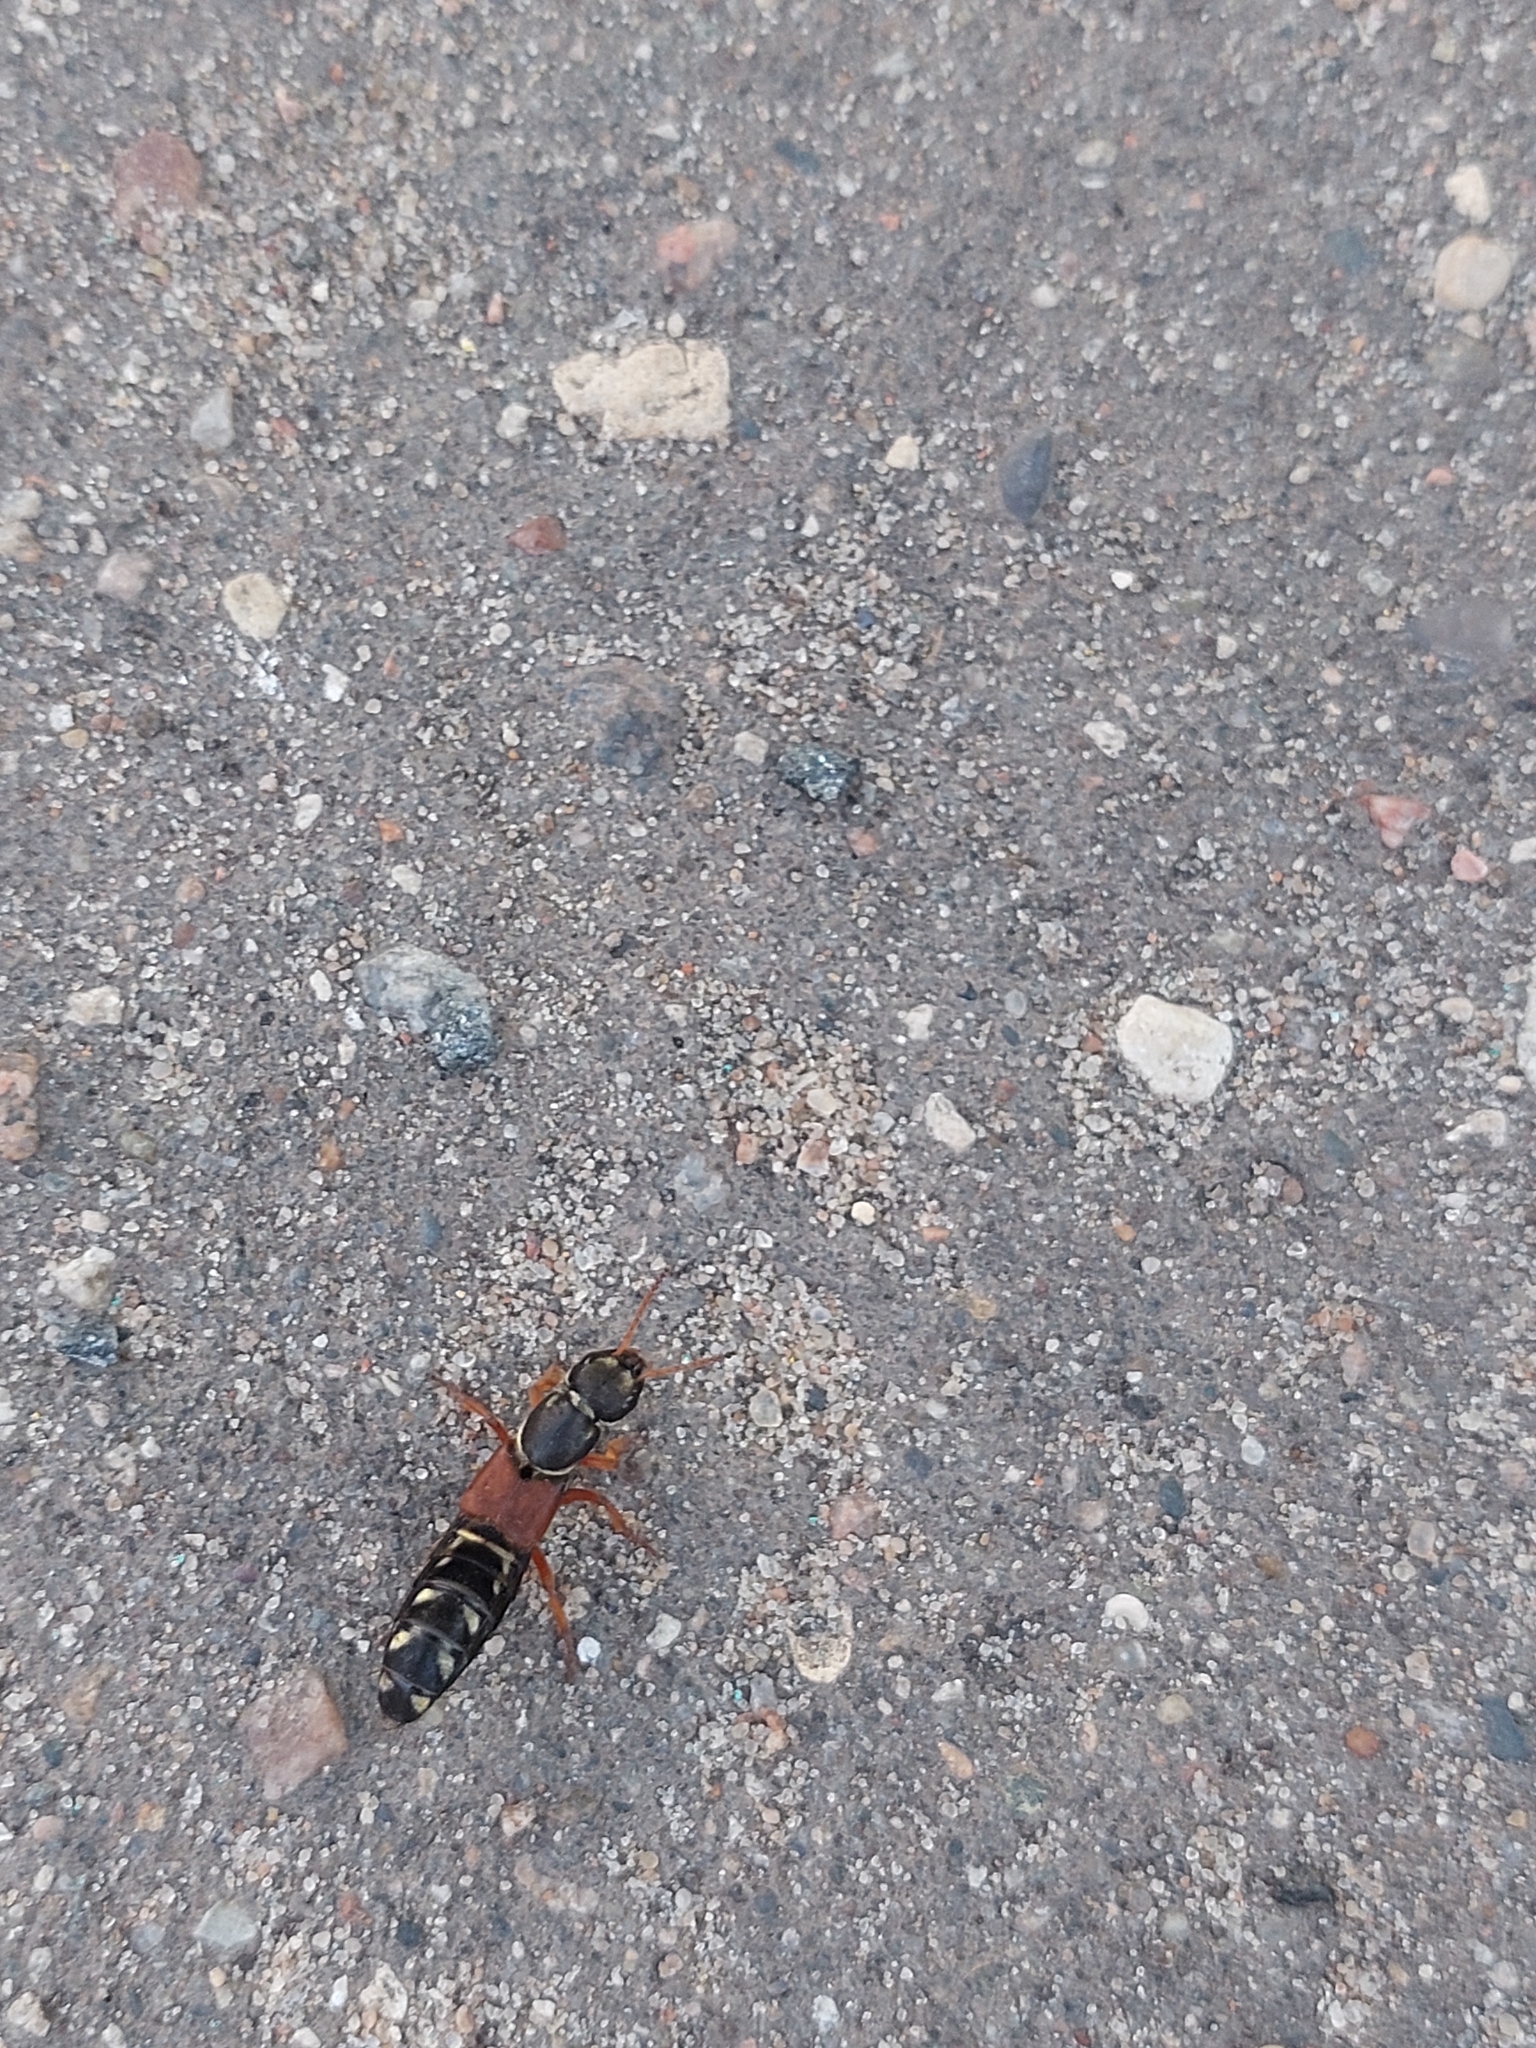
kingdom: Animalia
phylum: Arthropoda
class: Insecta
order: Coleoptera
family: Staphylinidae
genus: Staphylinus
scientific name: Staphylinus caesareus
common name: Staph beetle
